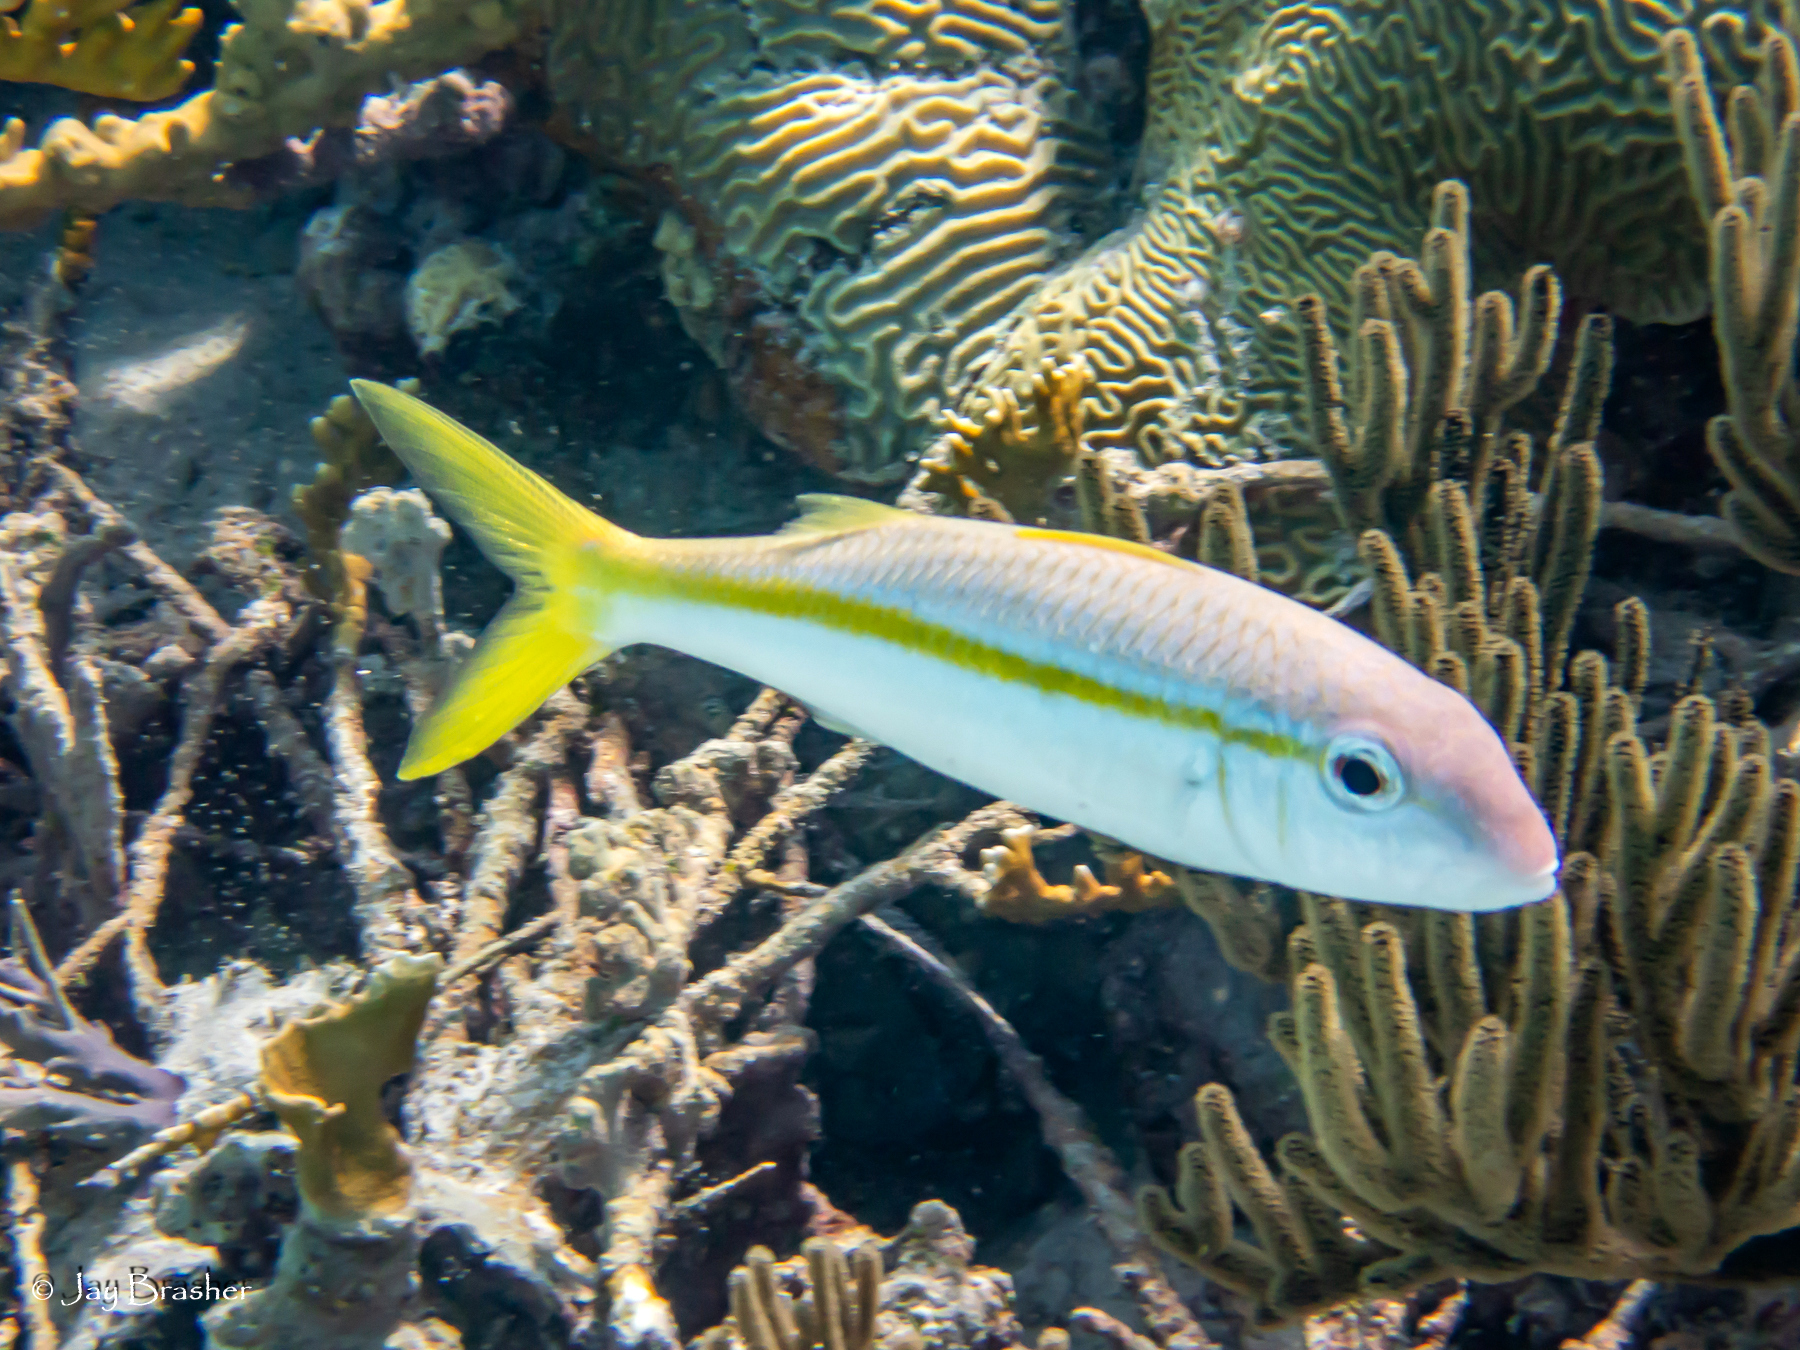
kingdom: Animalia
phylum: Chordata
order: Perciformes
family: Mullidae
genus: Mulloidichthys
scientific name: Mulloidichthys martinicus
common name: Yellow goatfish
